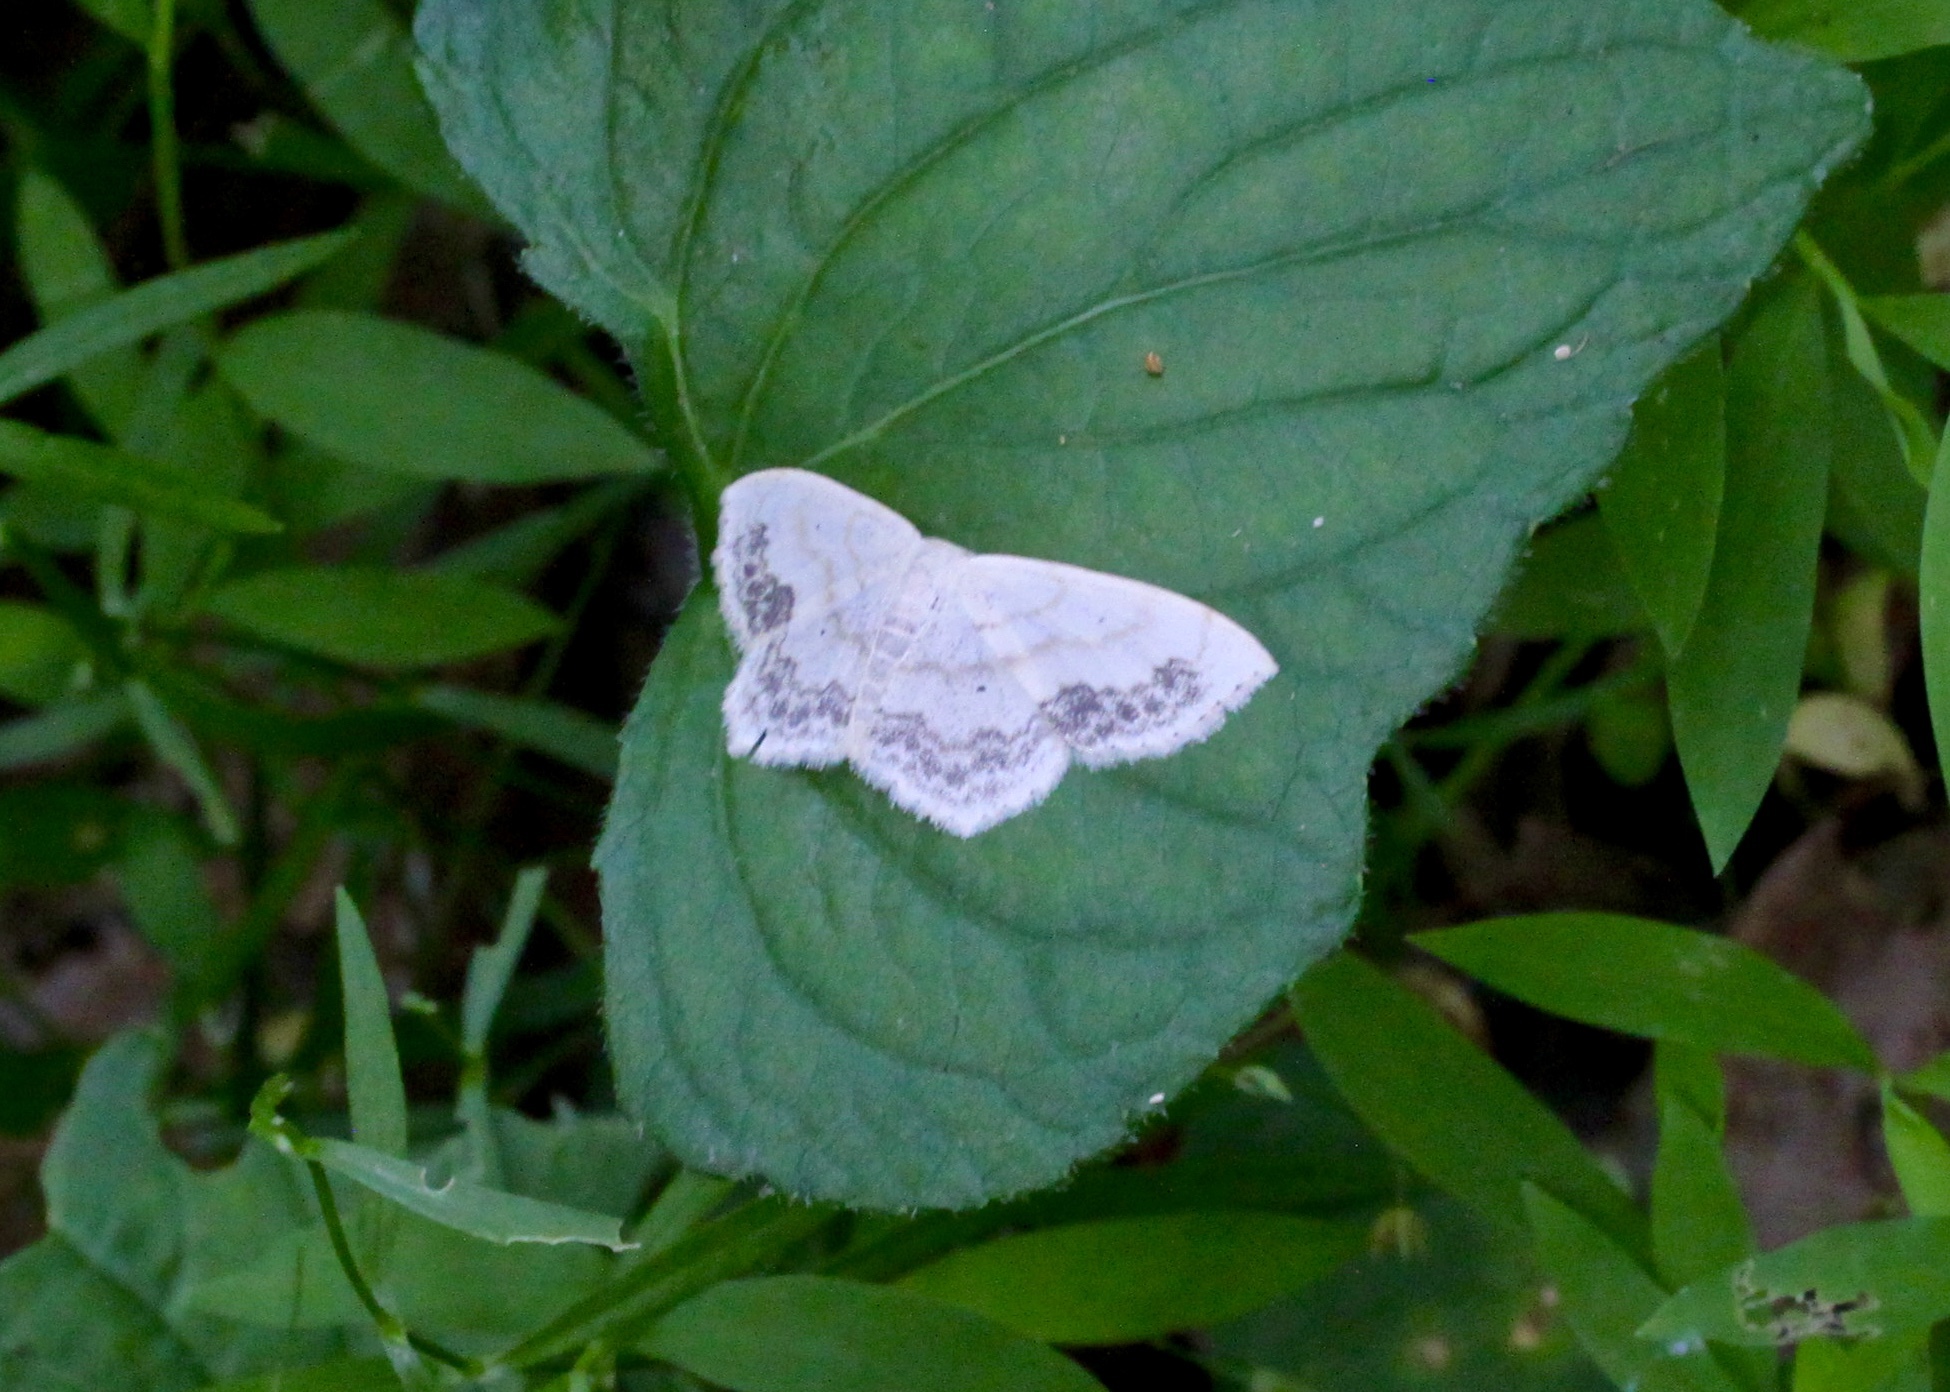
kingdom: Animalia
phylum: Arthropoda
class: Insecta
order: Lepidoptera
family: Geometridae
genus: Scopula
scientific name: Scopula limboundata
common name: Large lace border
